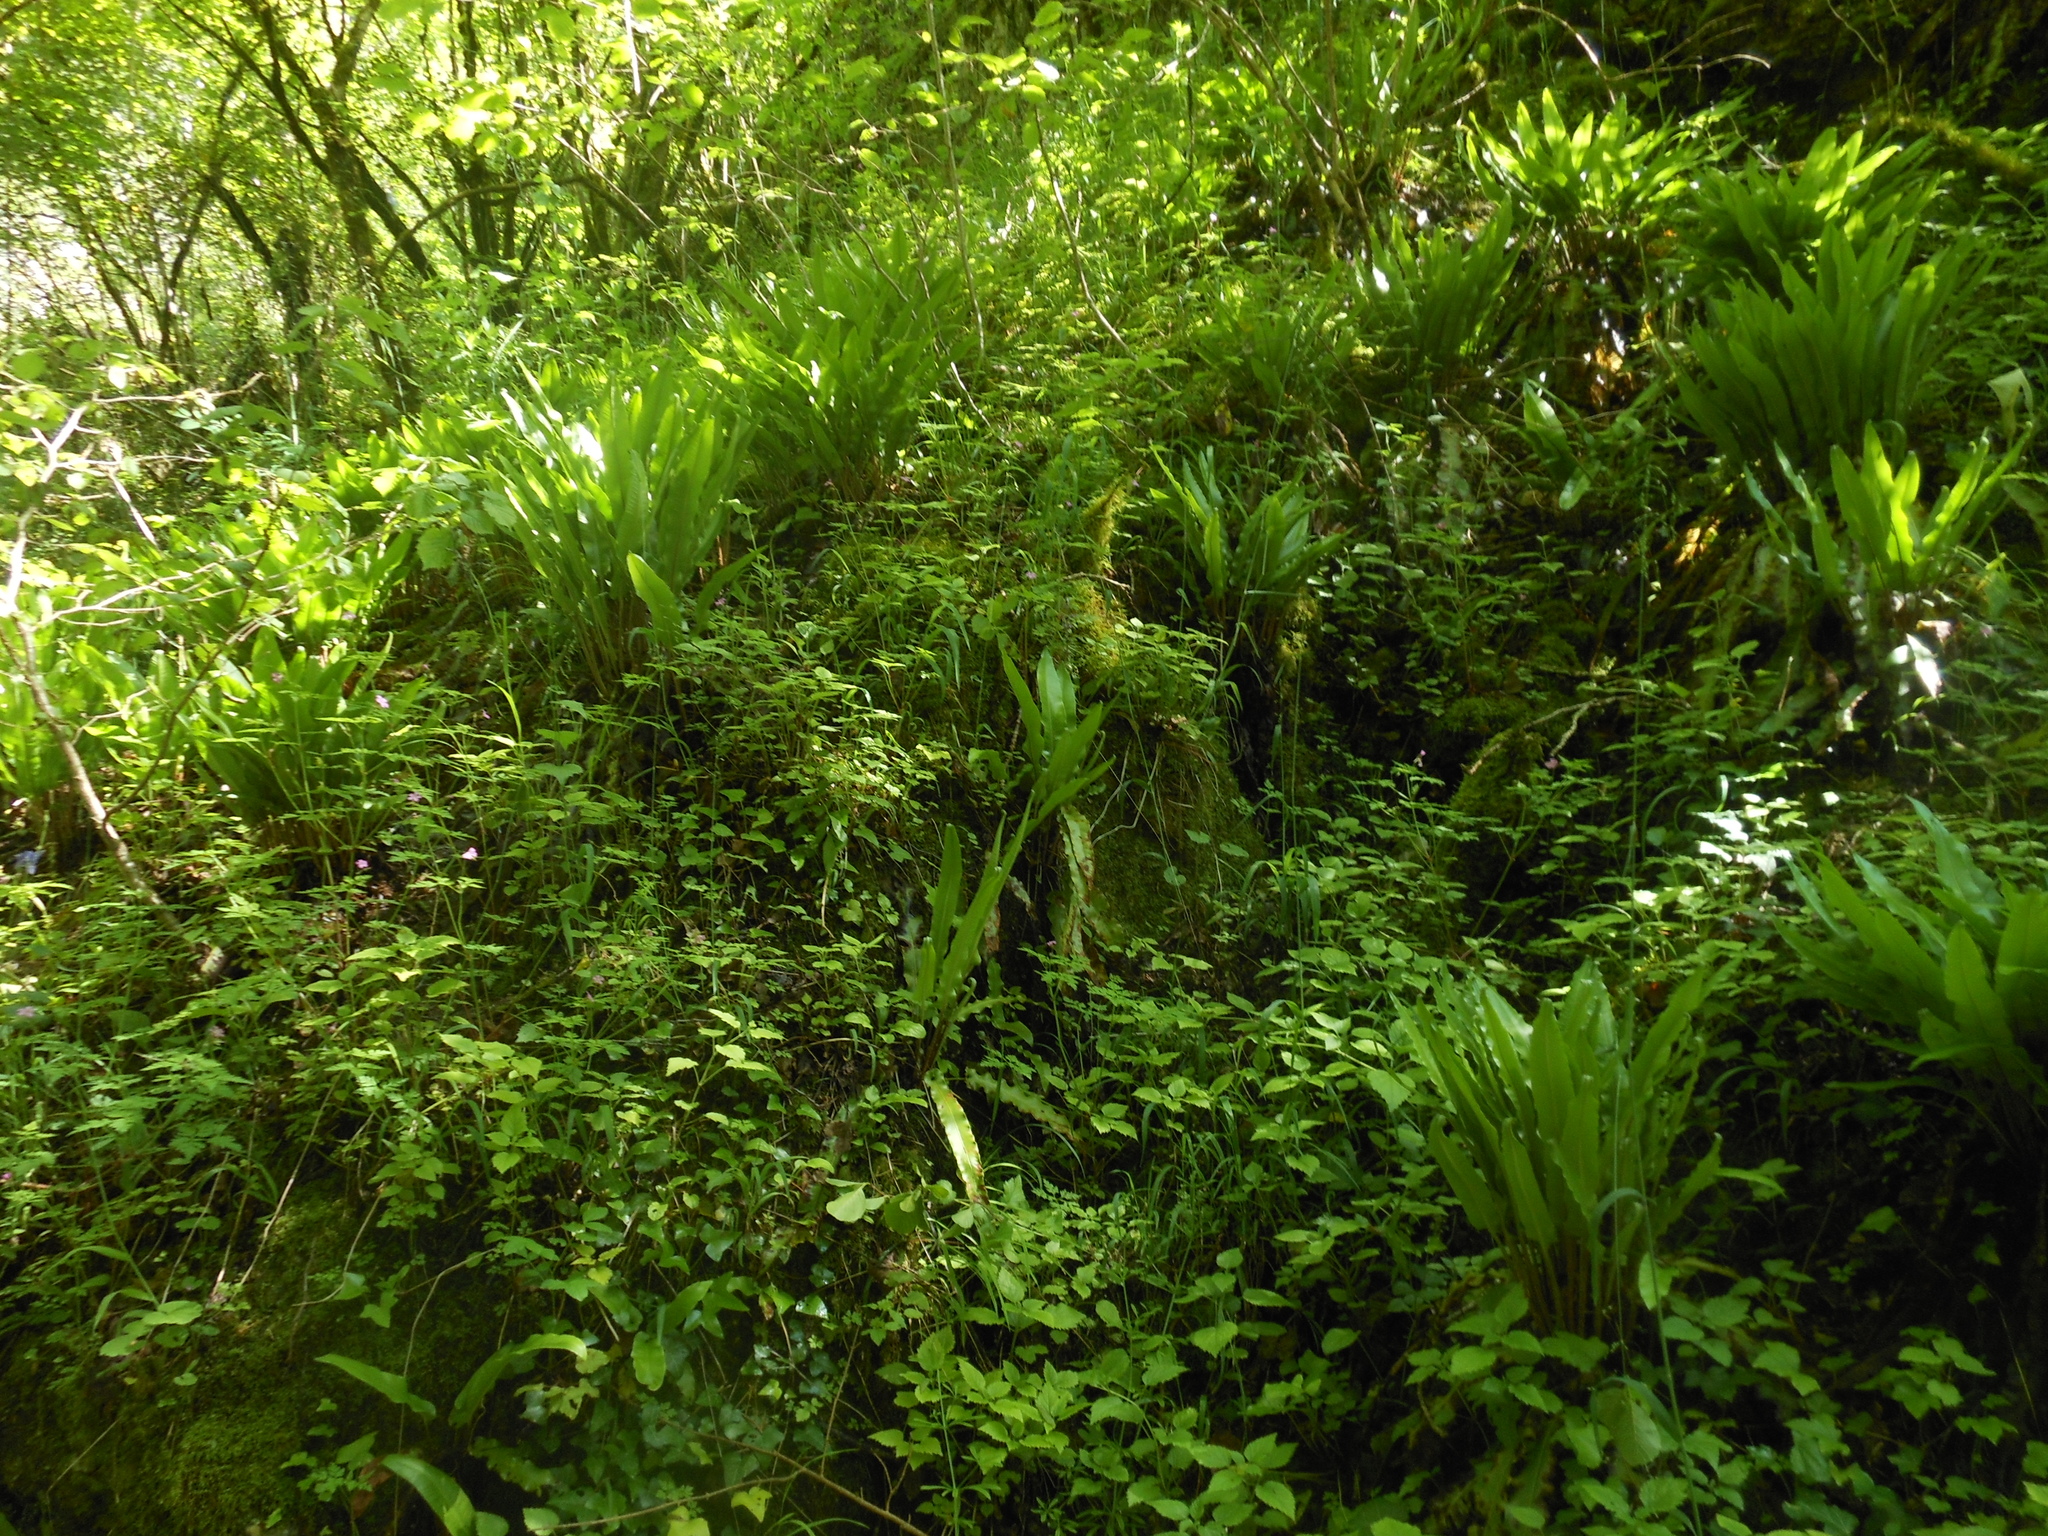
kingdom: Plantae
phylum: Tracheophyta
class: Polypodiopsida
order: Polypodiales
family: Aspleniaceae
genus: Asplenium
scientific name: Asplenium scolopendrium
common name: Hart's-tongue fern
